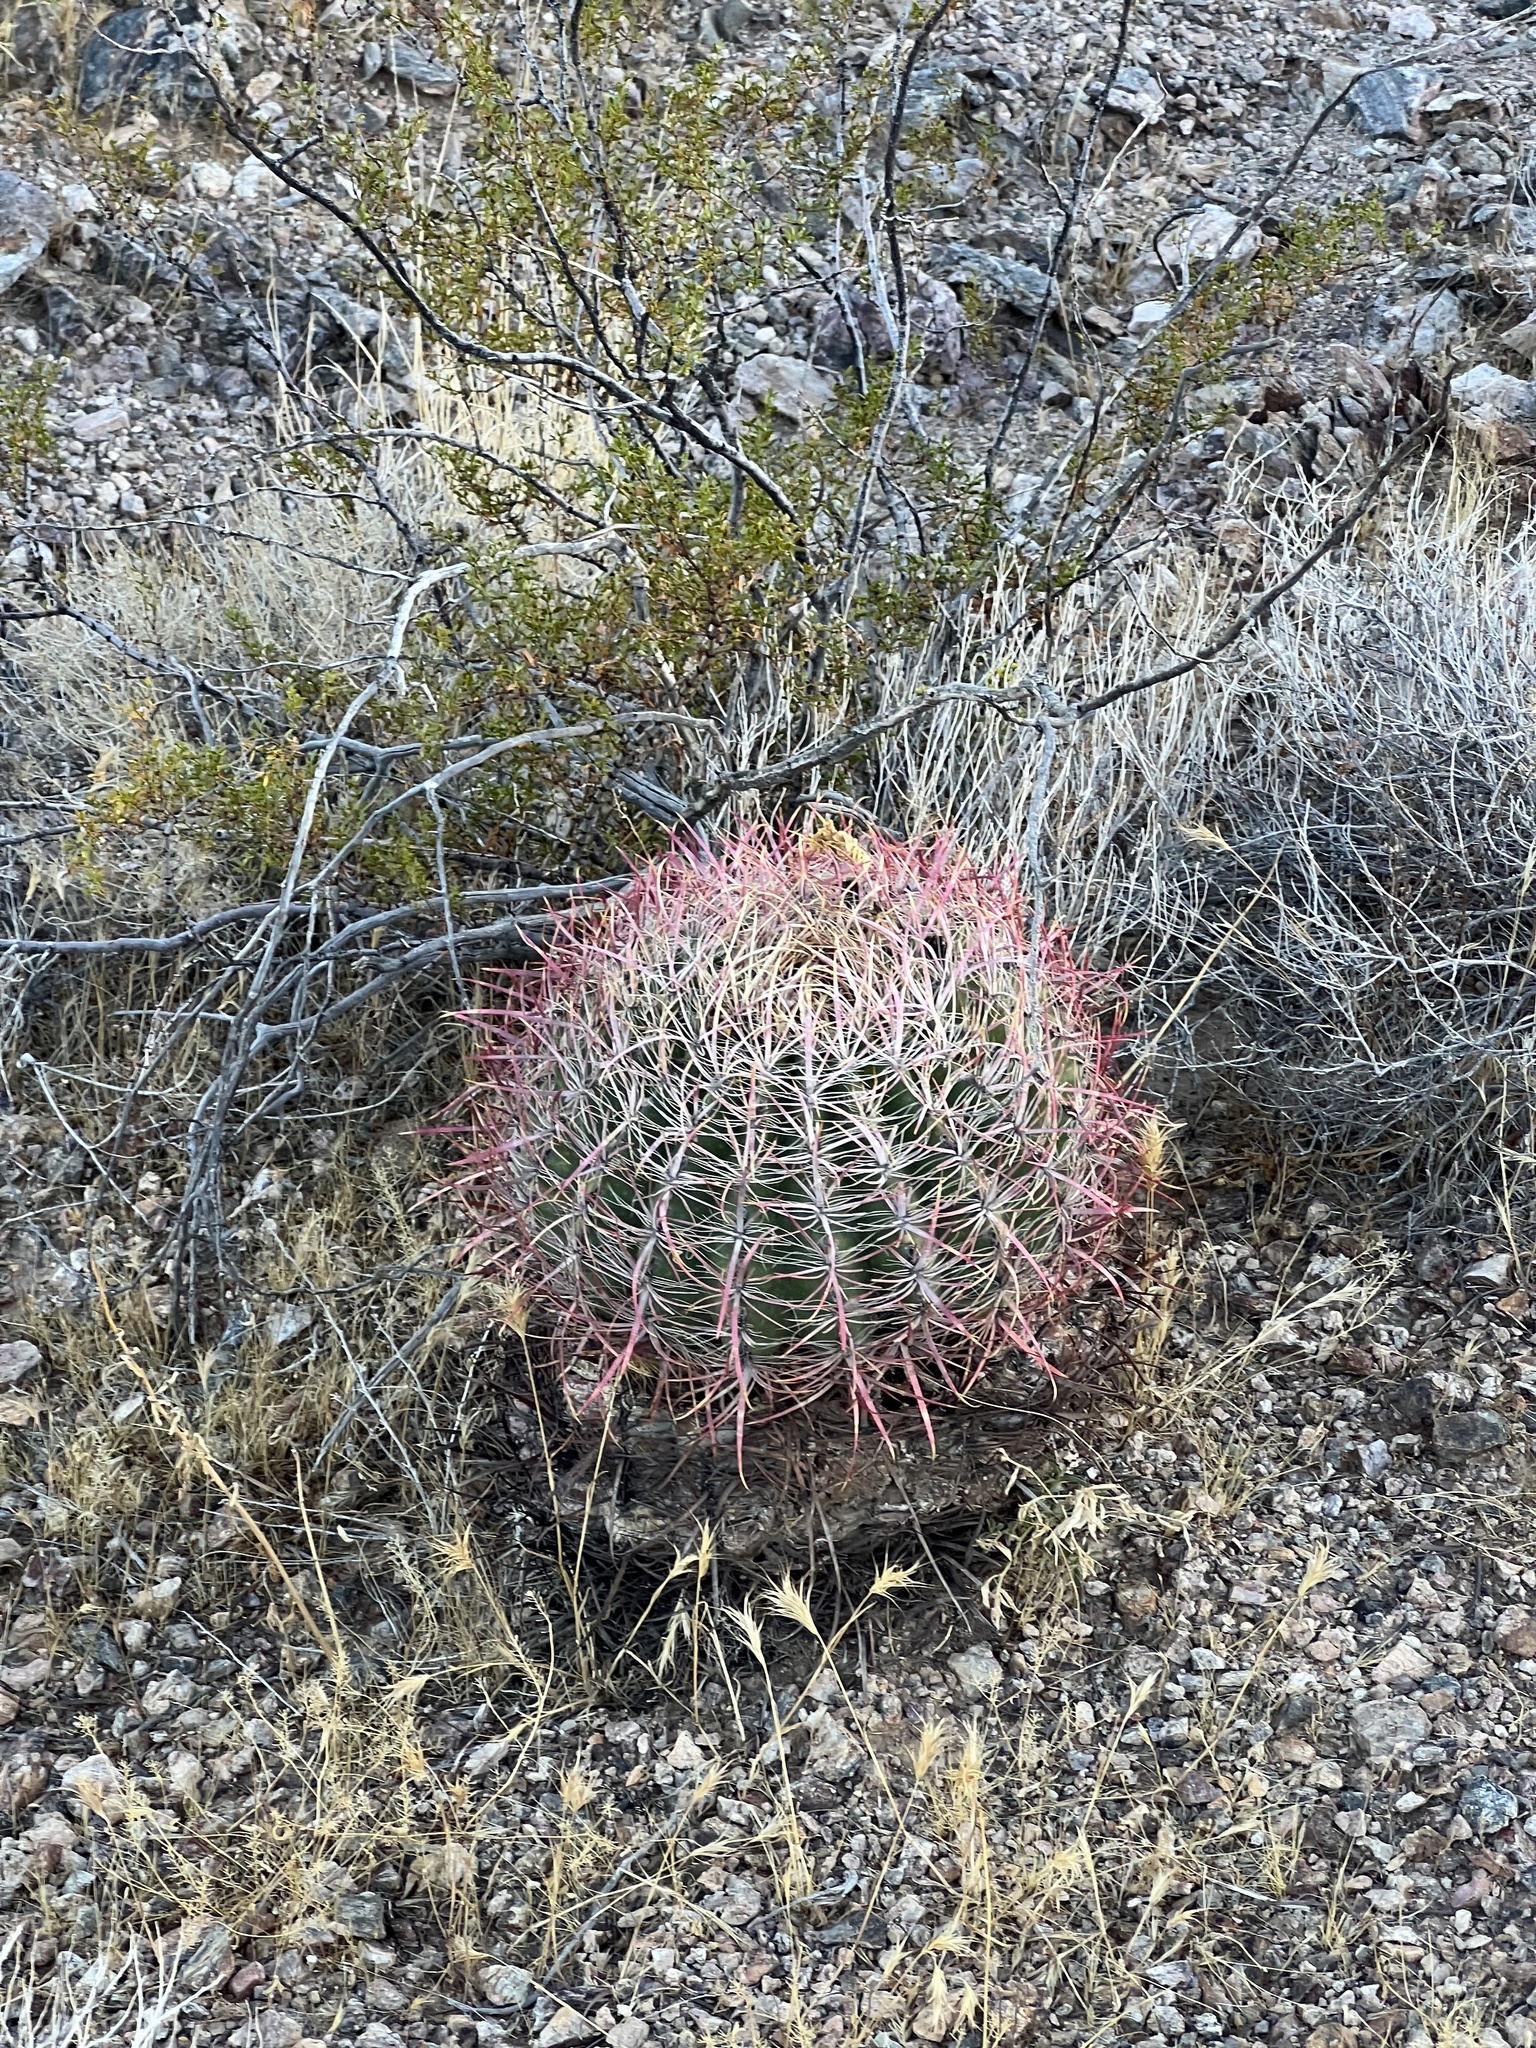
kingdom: Plantae
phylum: Tracheophyta
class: Magnoliopsida
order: Caryophyllales
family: Cactaceae
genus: Ferocactus
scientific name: Ferocactus cylindraceus
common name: California barrel cactus
